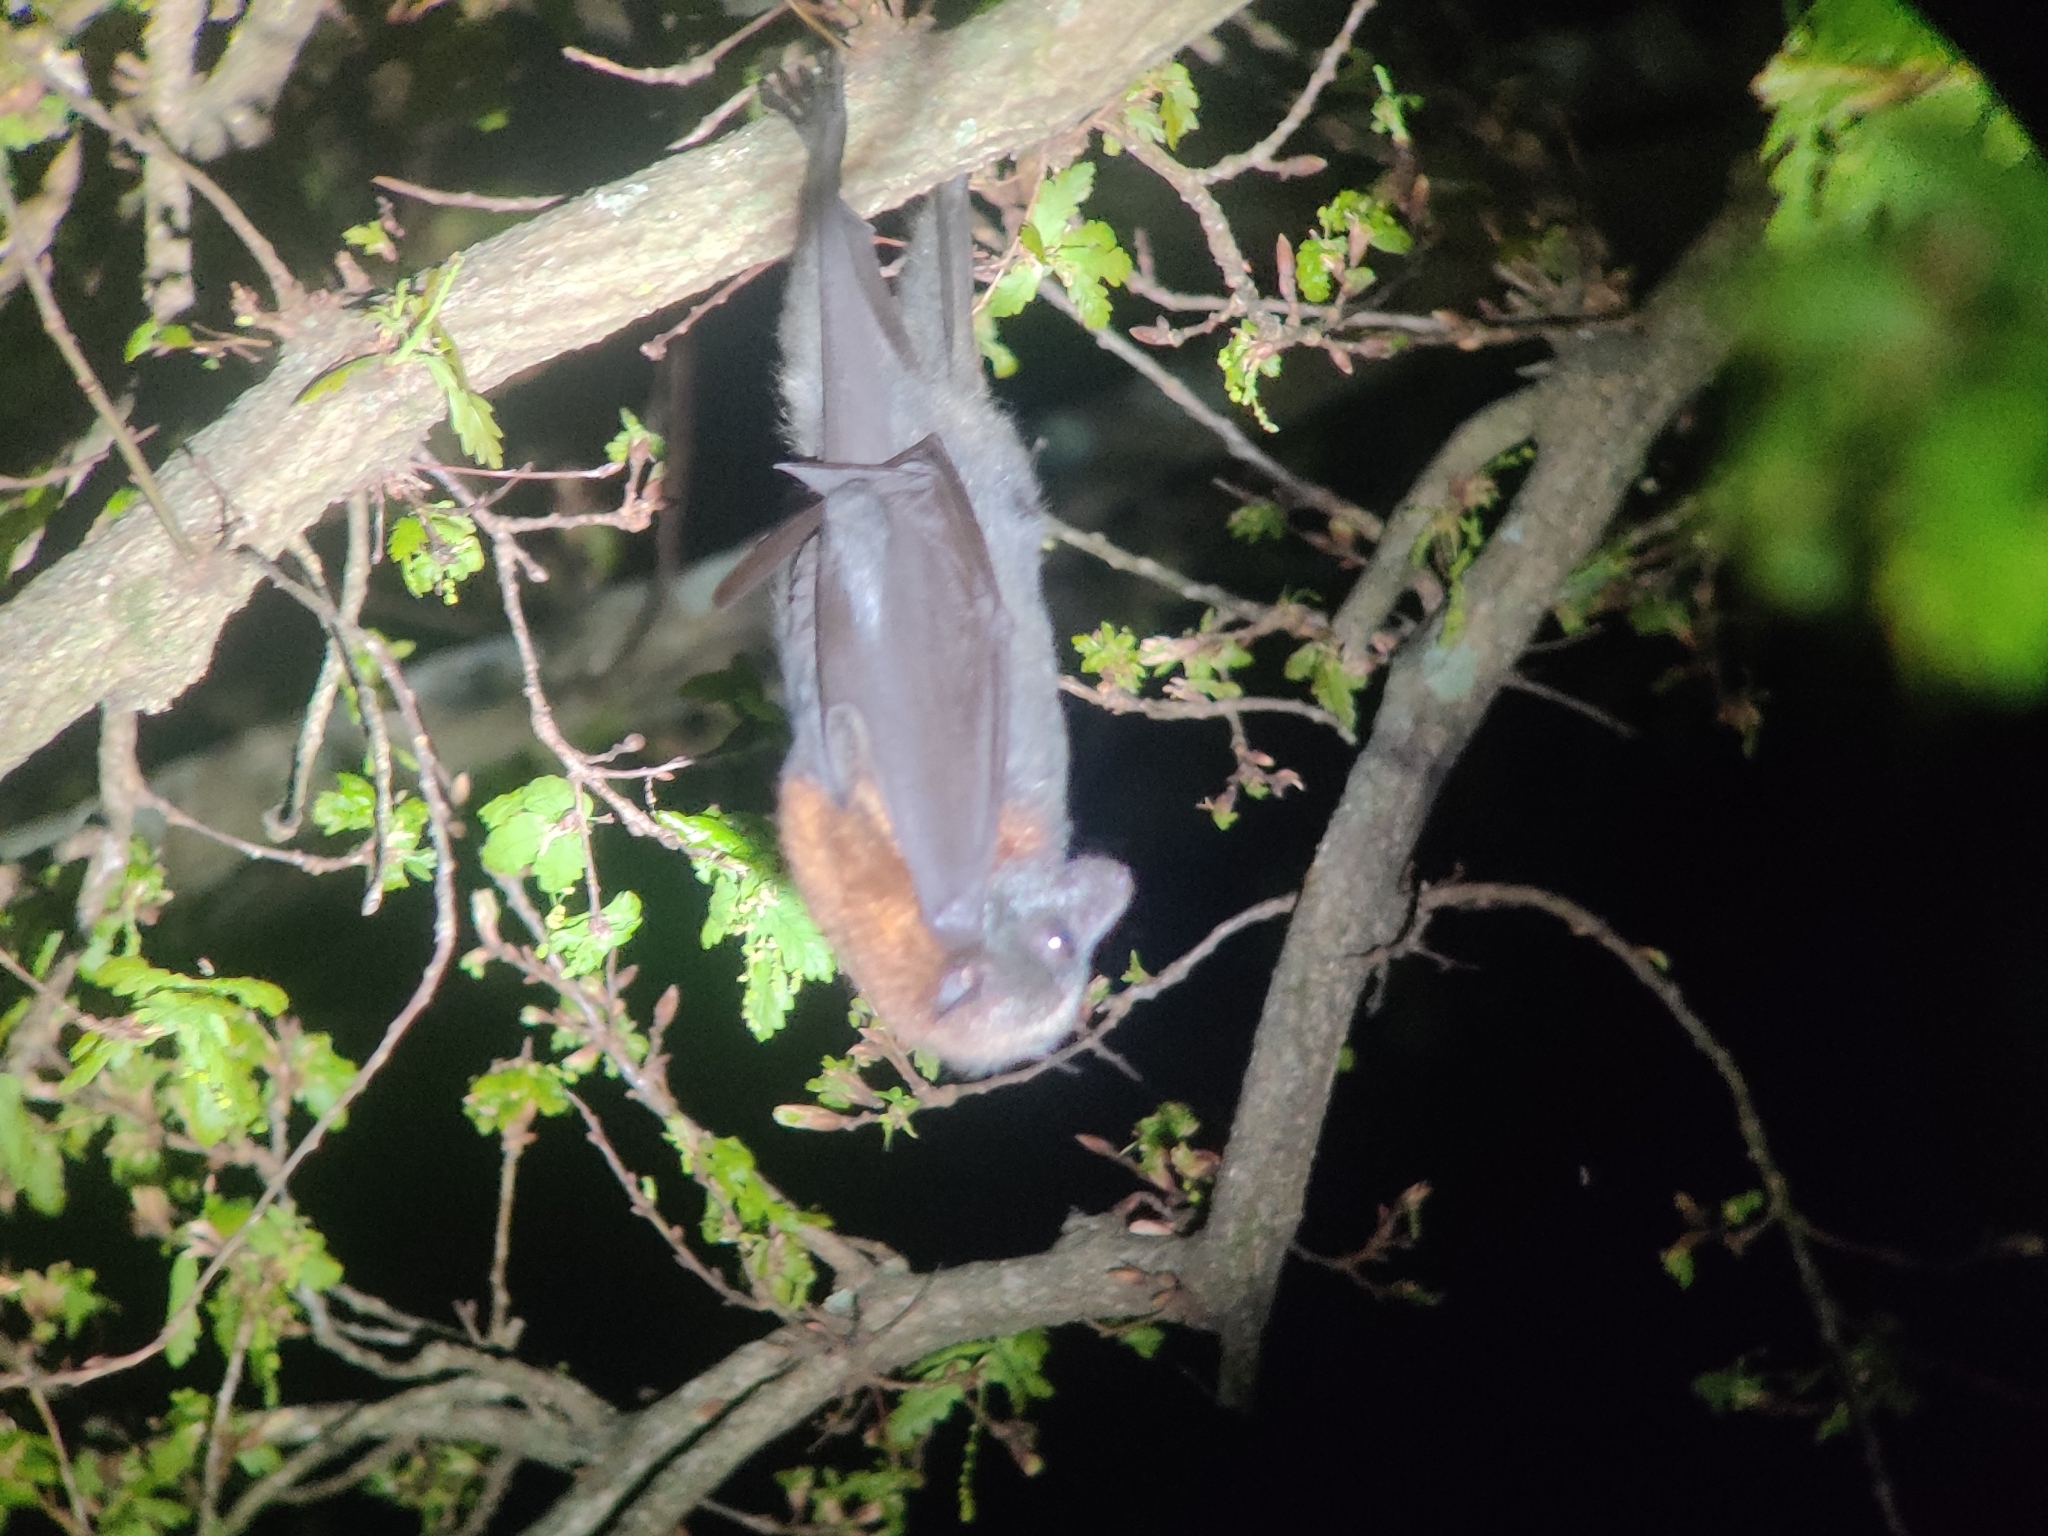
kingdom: Animalia
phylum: Chordata
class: Mammalia
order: Chiroptera
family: Pteropodidae
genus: Pteropus
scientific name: Pteropus poliocephalus
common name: Gray-headed flying fox
